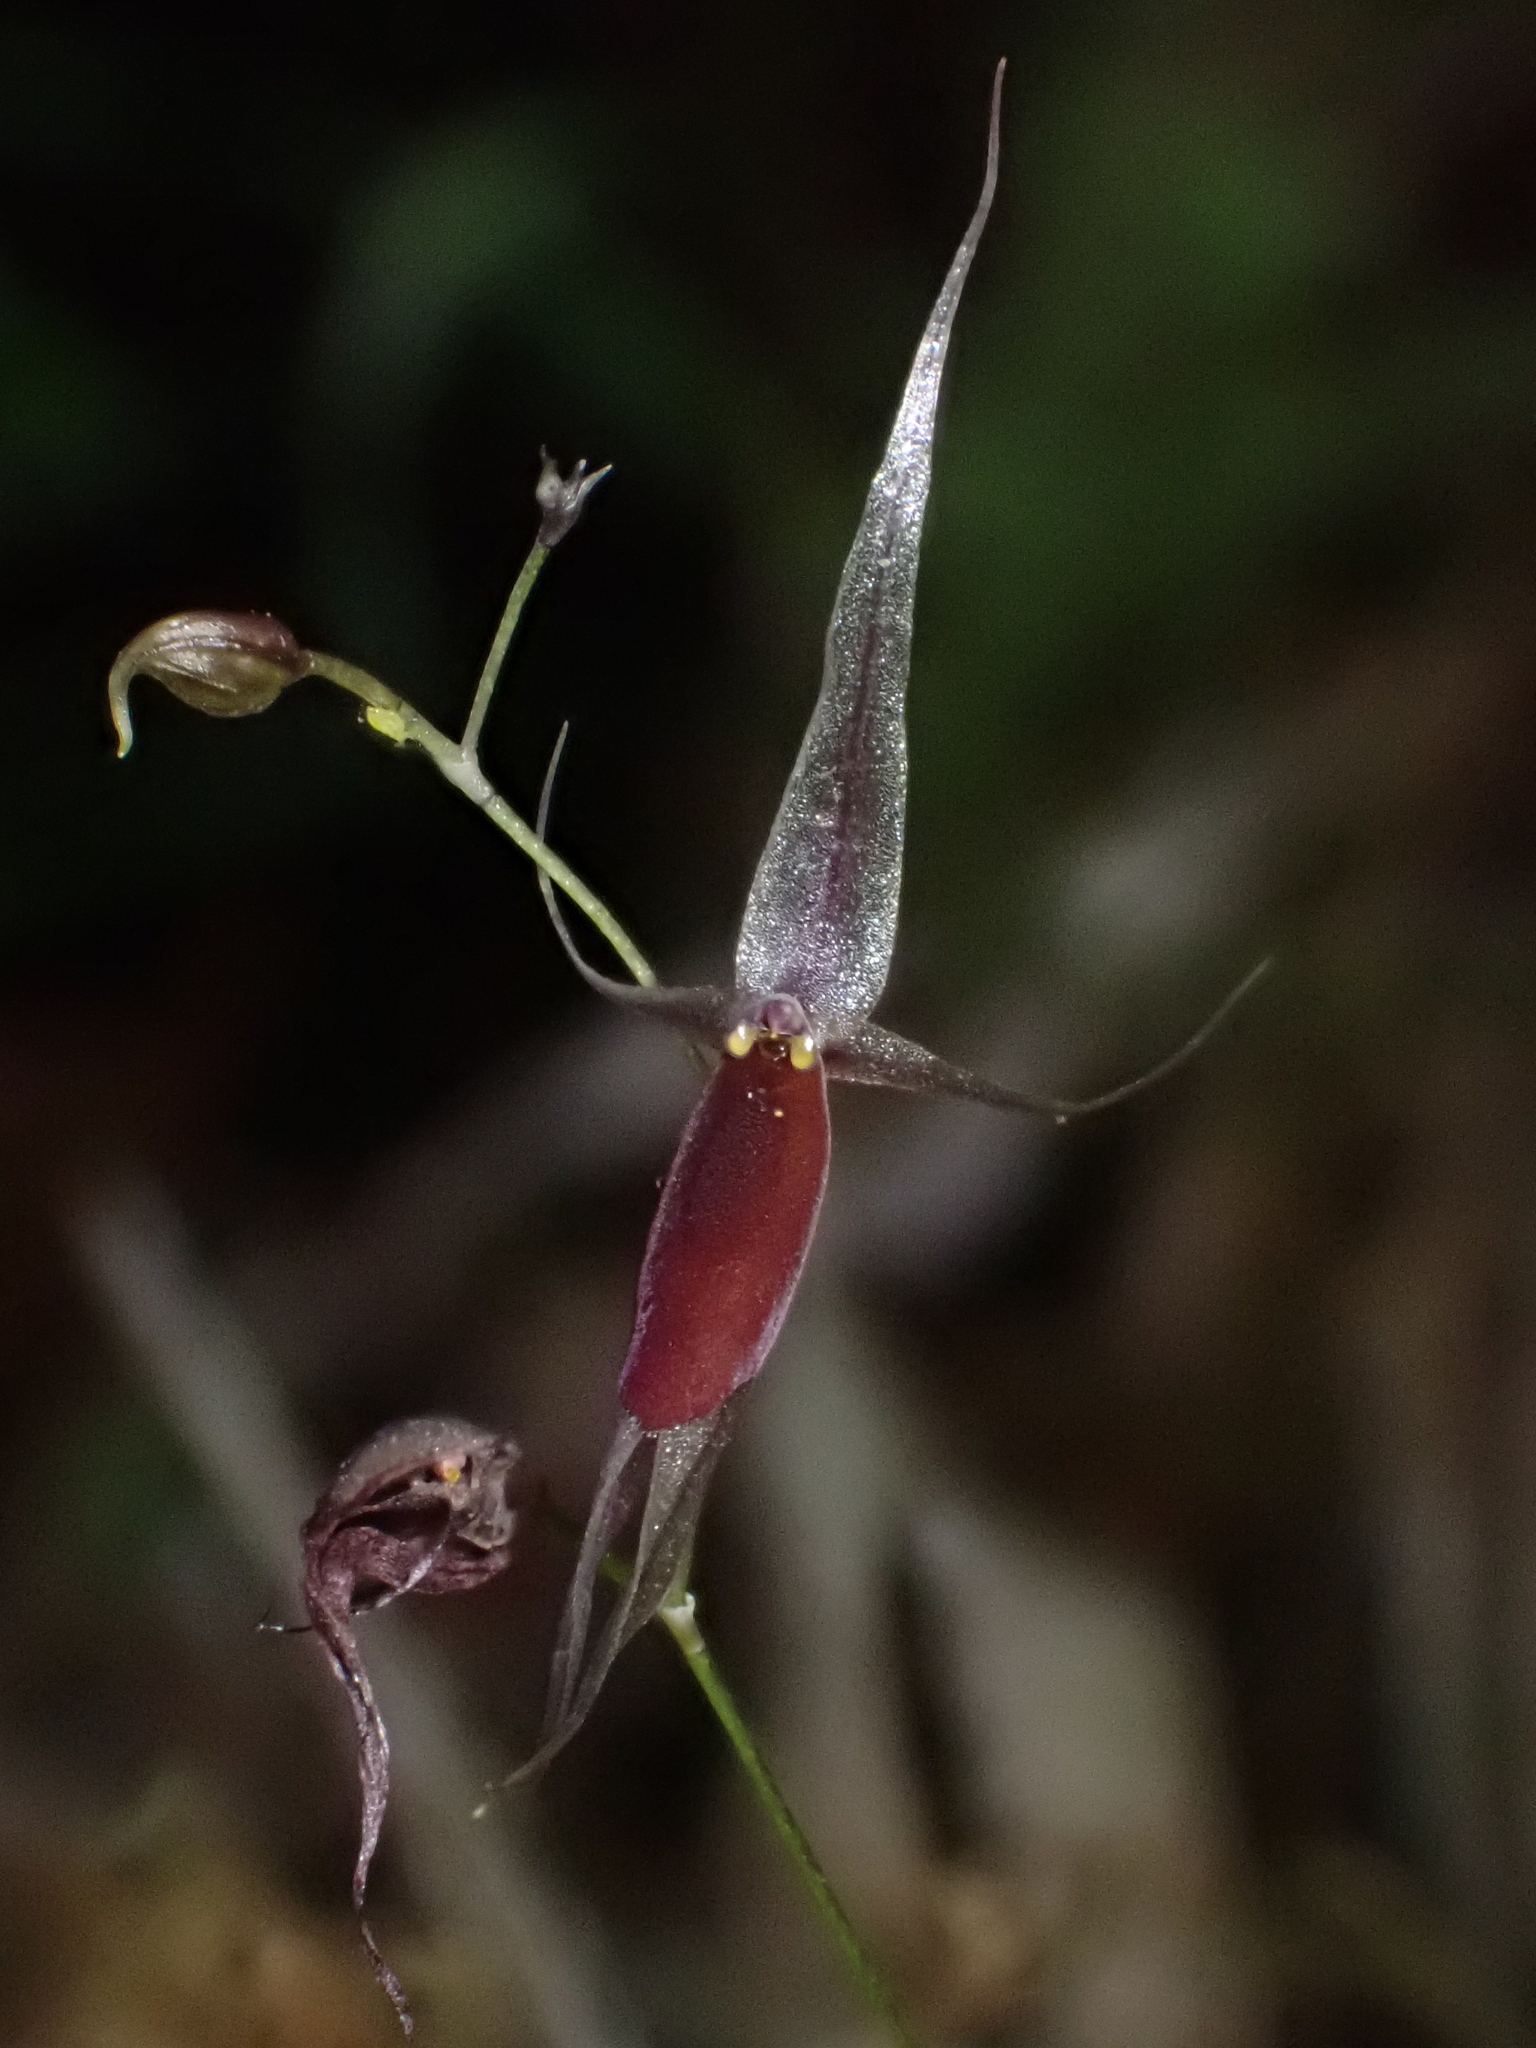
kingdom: Plantae
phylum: Tracheophyta
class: Liliopsida
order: Asparagales
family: Orchidaceae
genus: Platystele
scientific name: Platystele hirtzii
